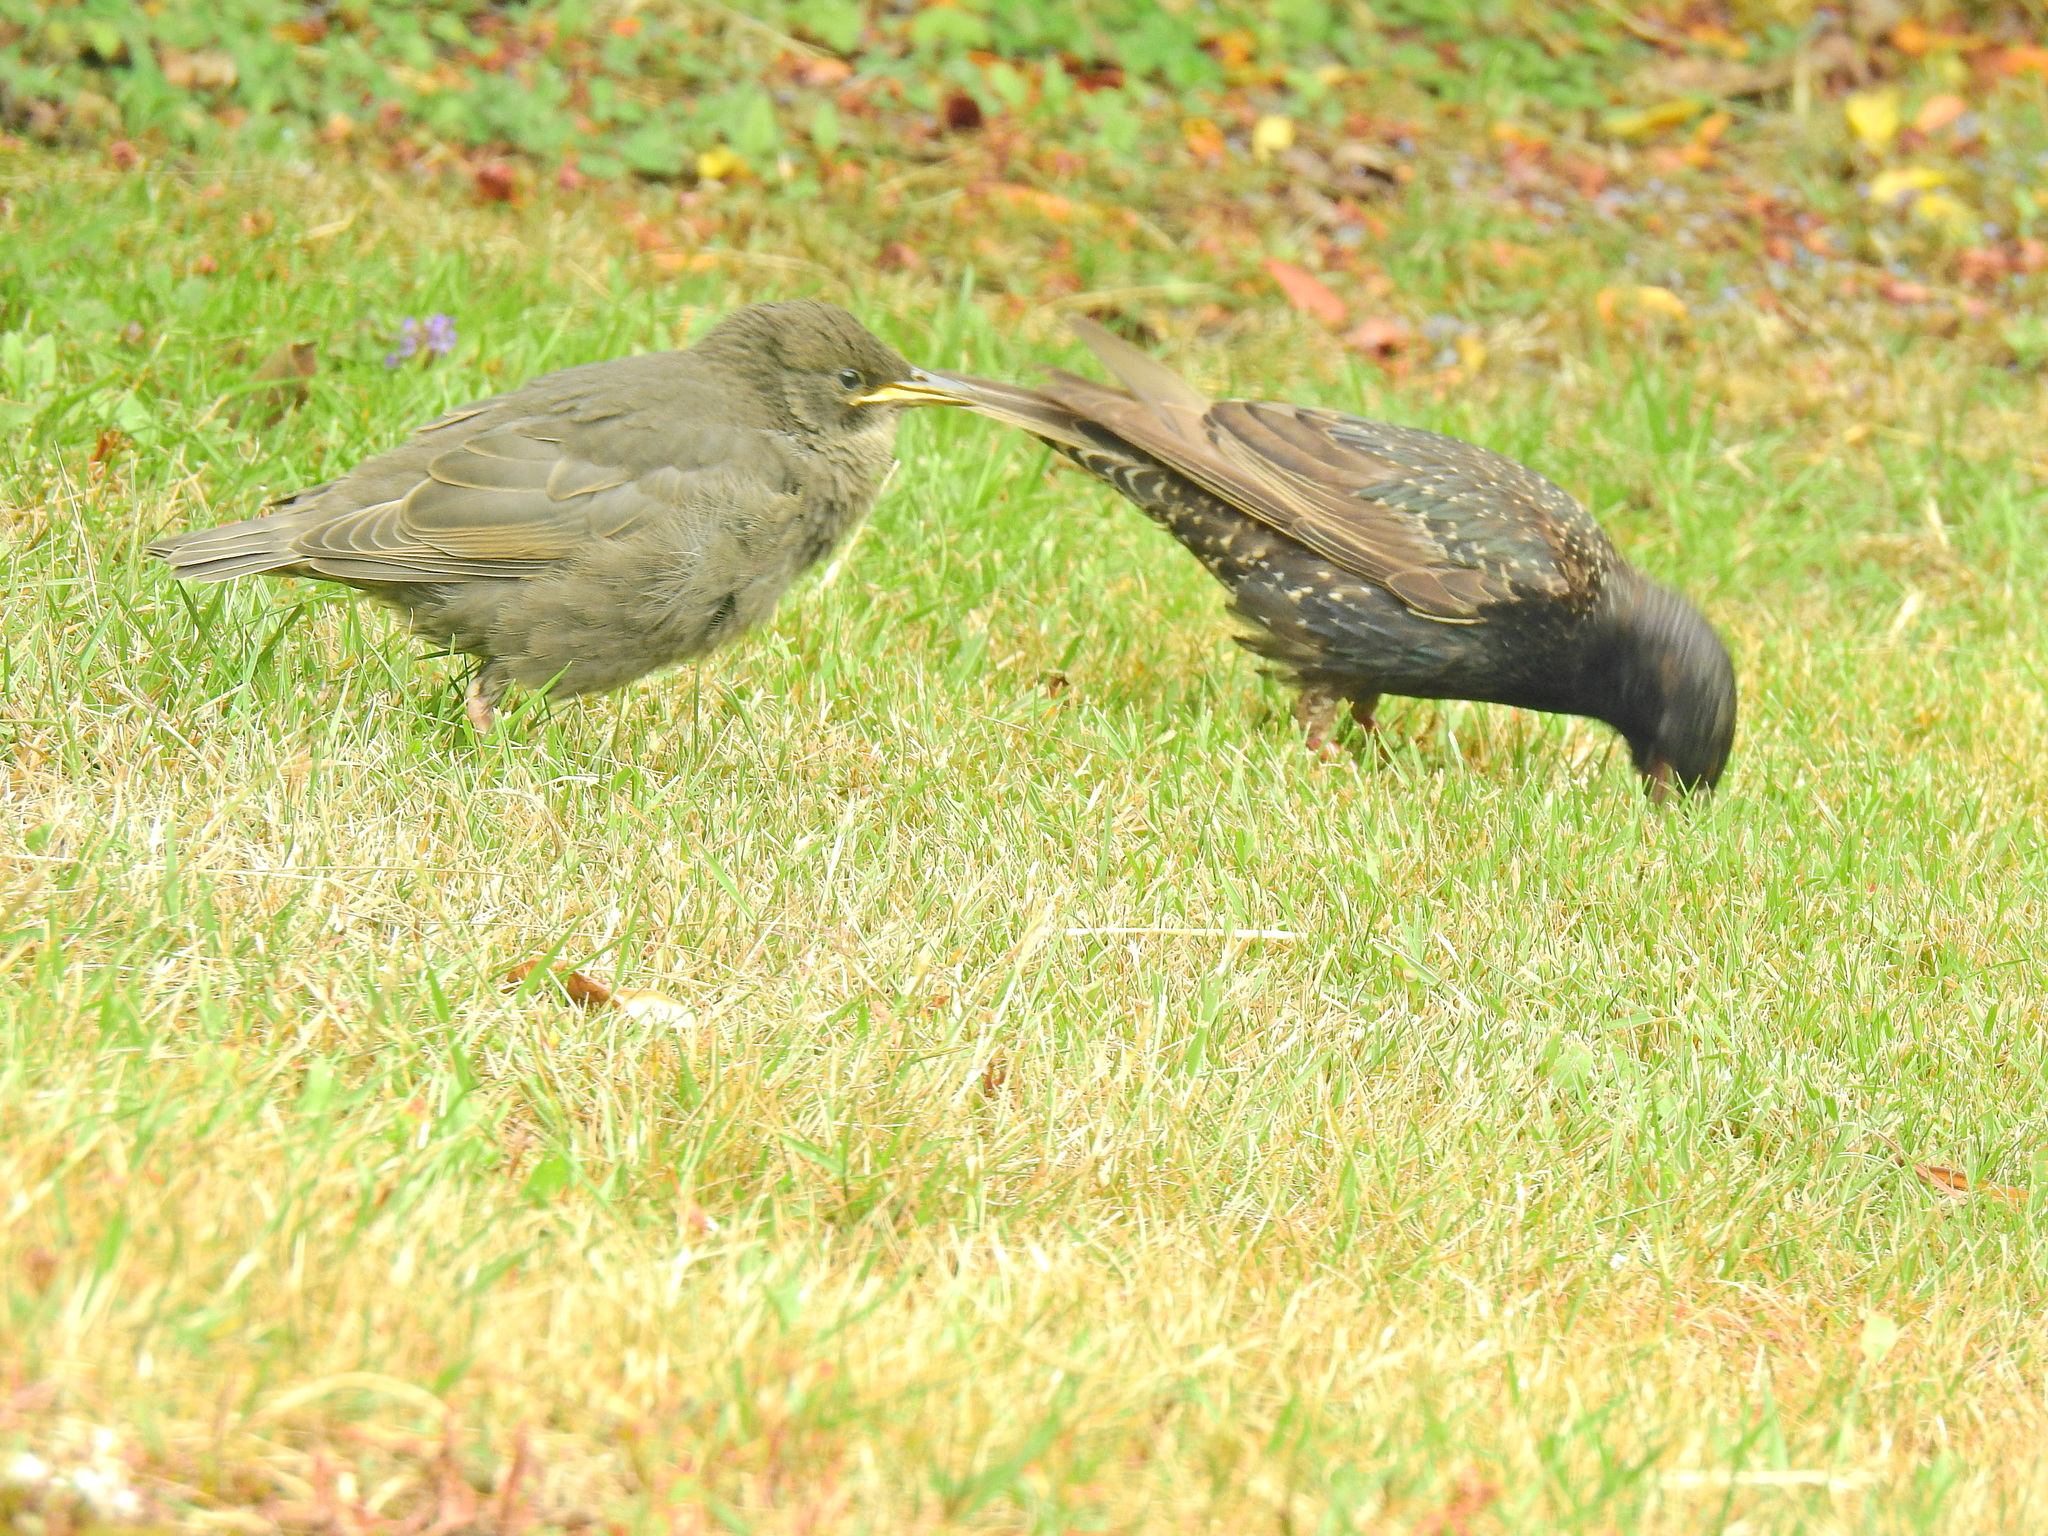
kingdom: Animalia
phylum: Chordata
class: Aves
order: Passeriformes
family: Sturnidae
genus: Sturnus
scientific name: Sturnus vulgaris
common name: Common starling
